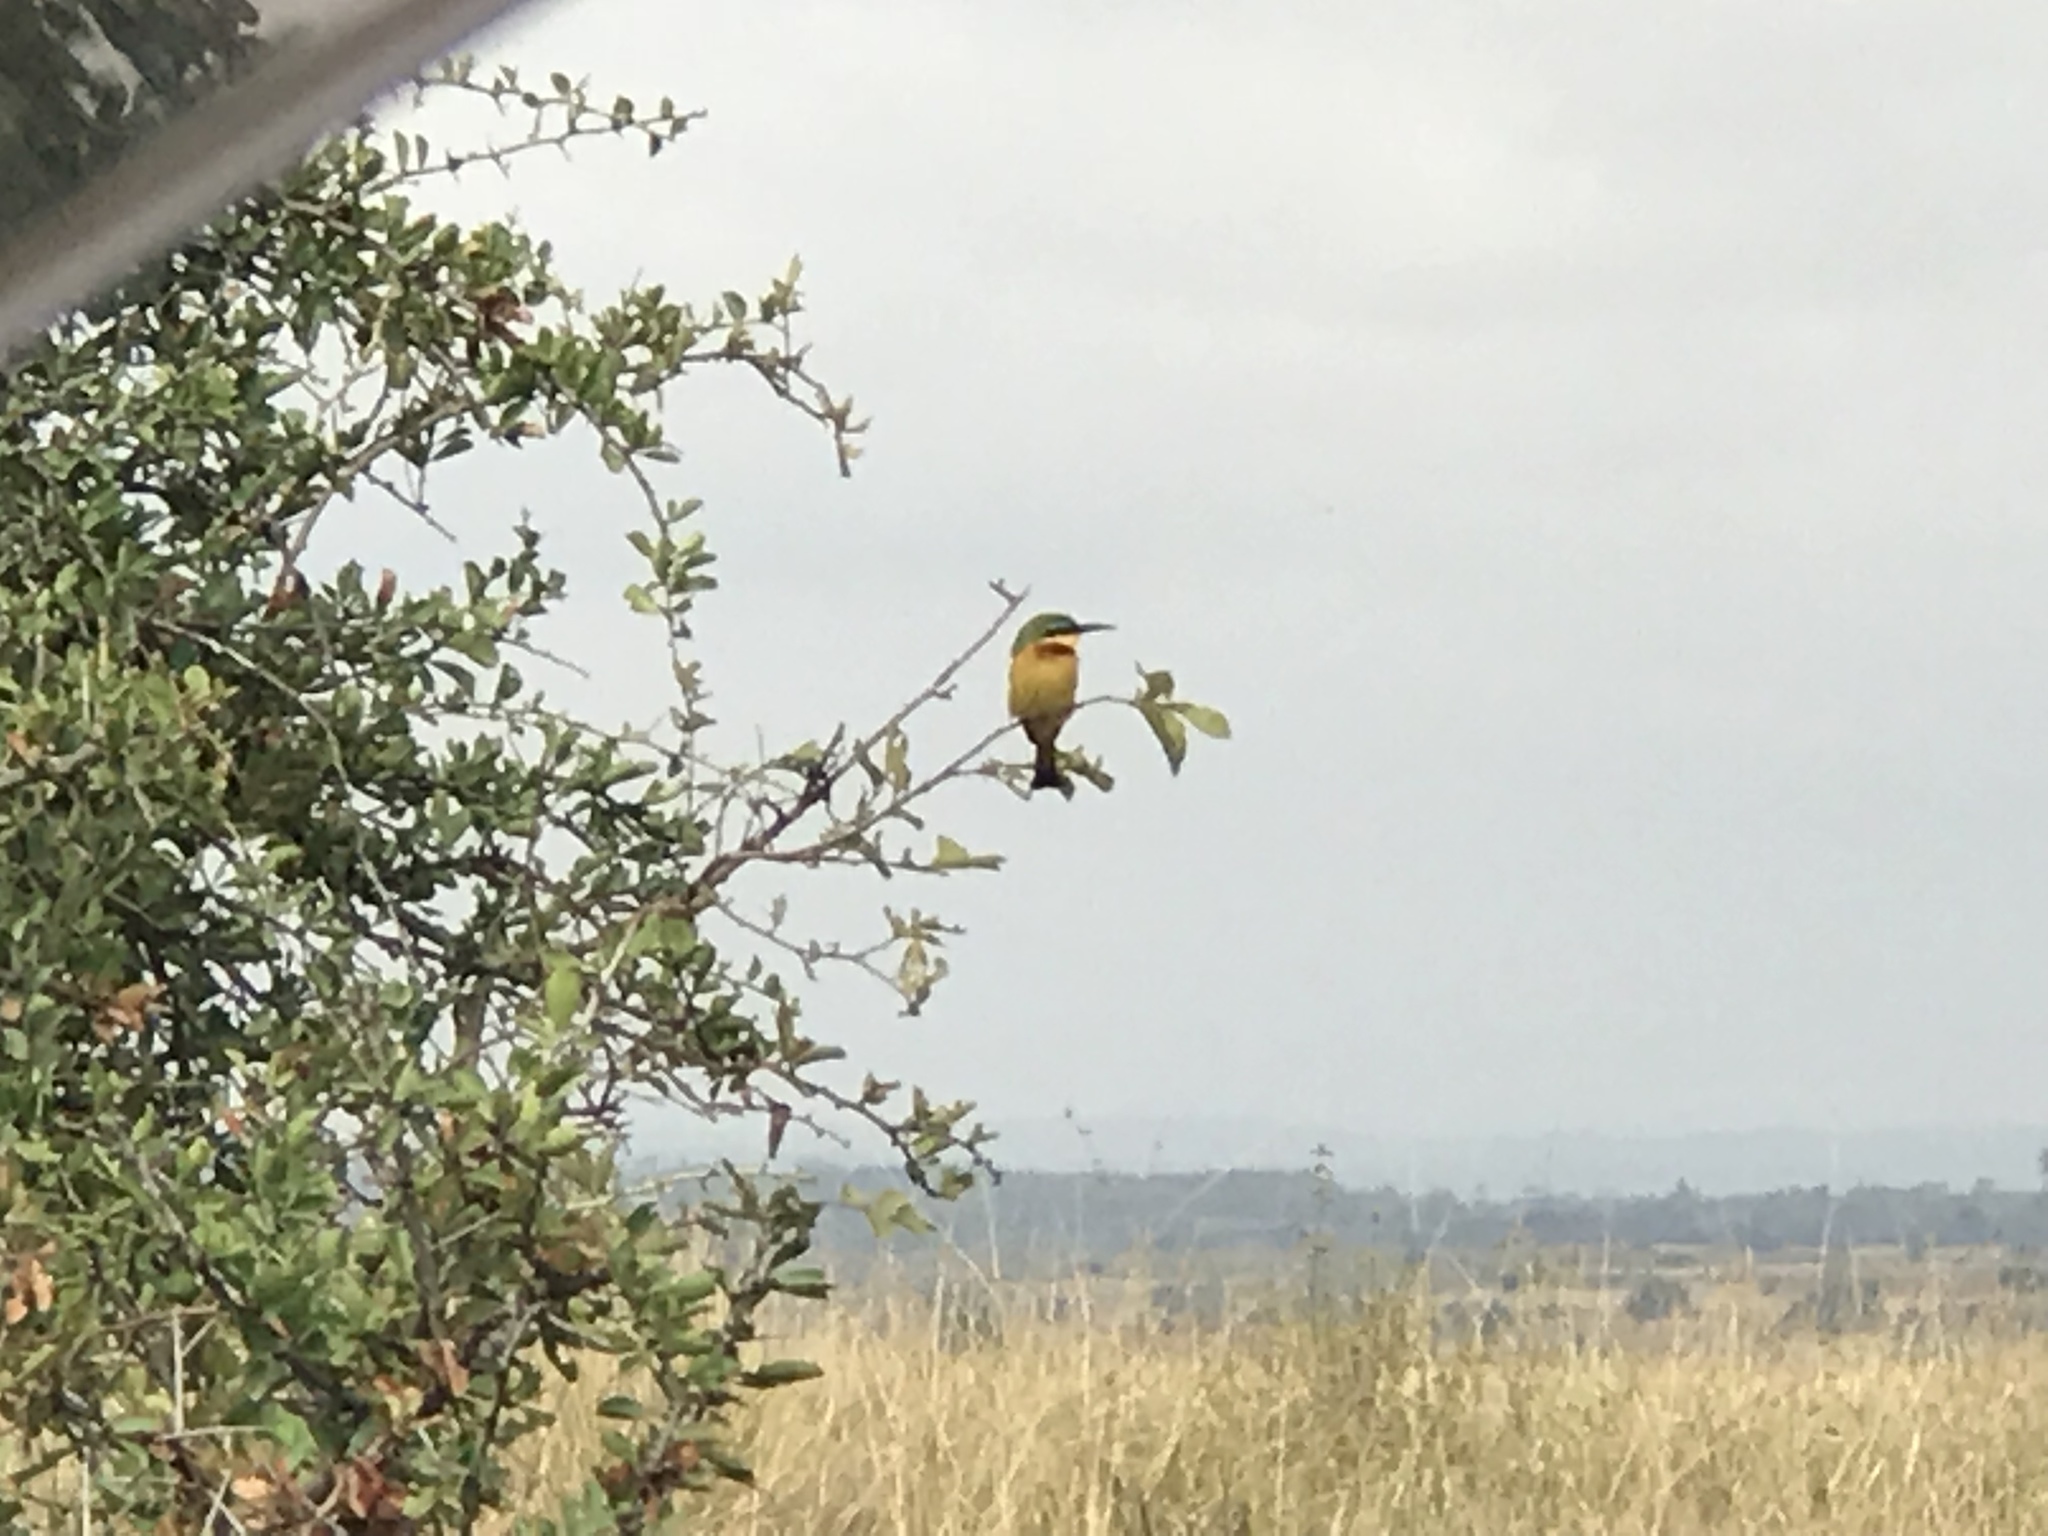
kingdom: Animalia
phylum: Chordata
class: Aves
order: Coraciiformes
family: Meropidae
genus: Merops
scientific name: Merops pusillus
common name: Little bee-eater
